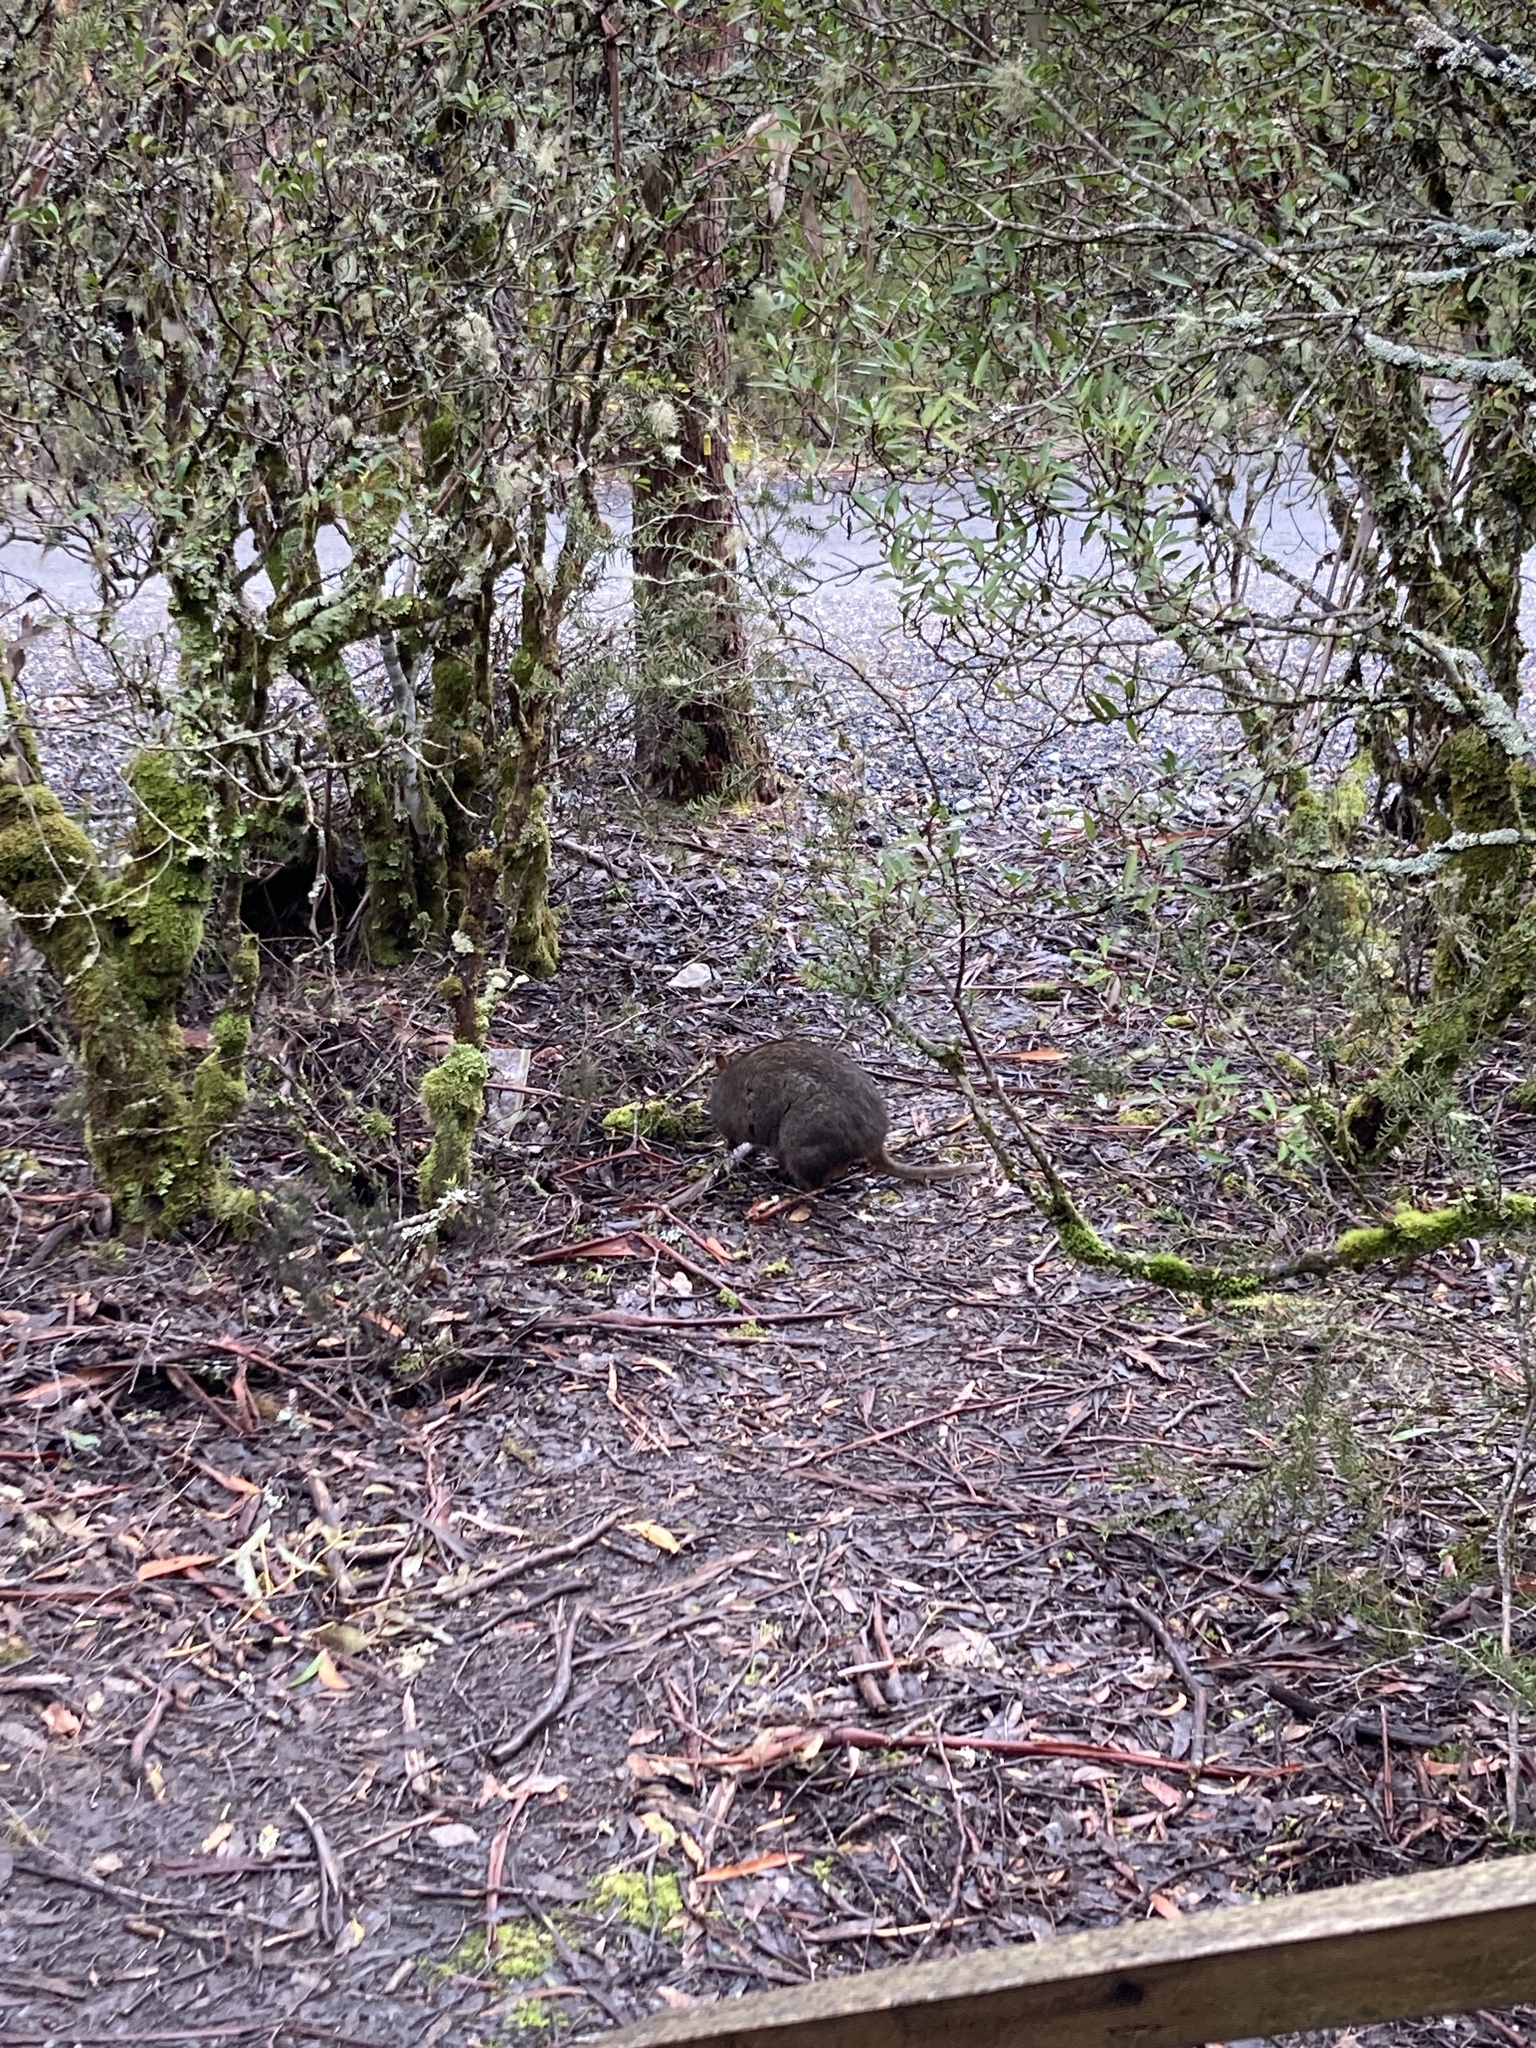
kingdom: Animalia
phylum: Chordata
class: Mammalia
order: Diprotodontia
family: Macropodidae
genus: Thylogale
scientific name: Thylogale billardierii
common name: Tasmanian pademelon
